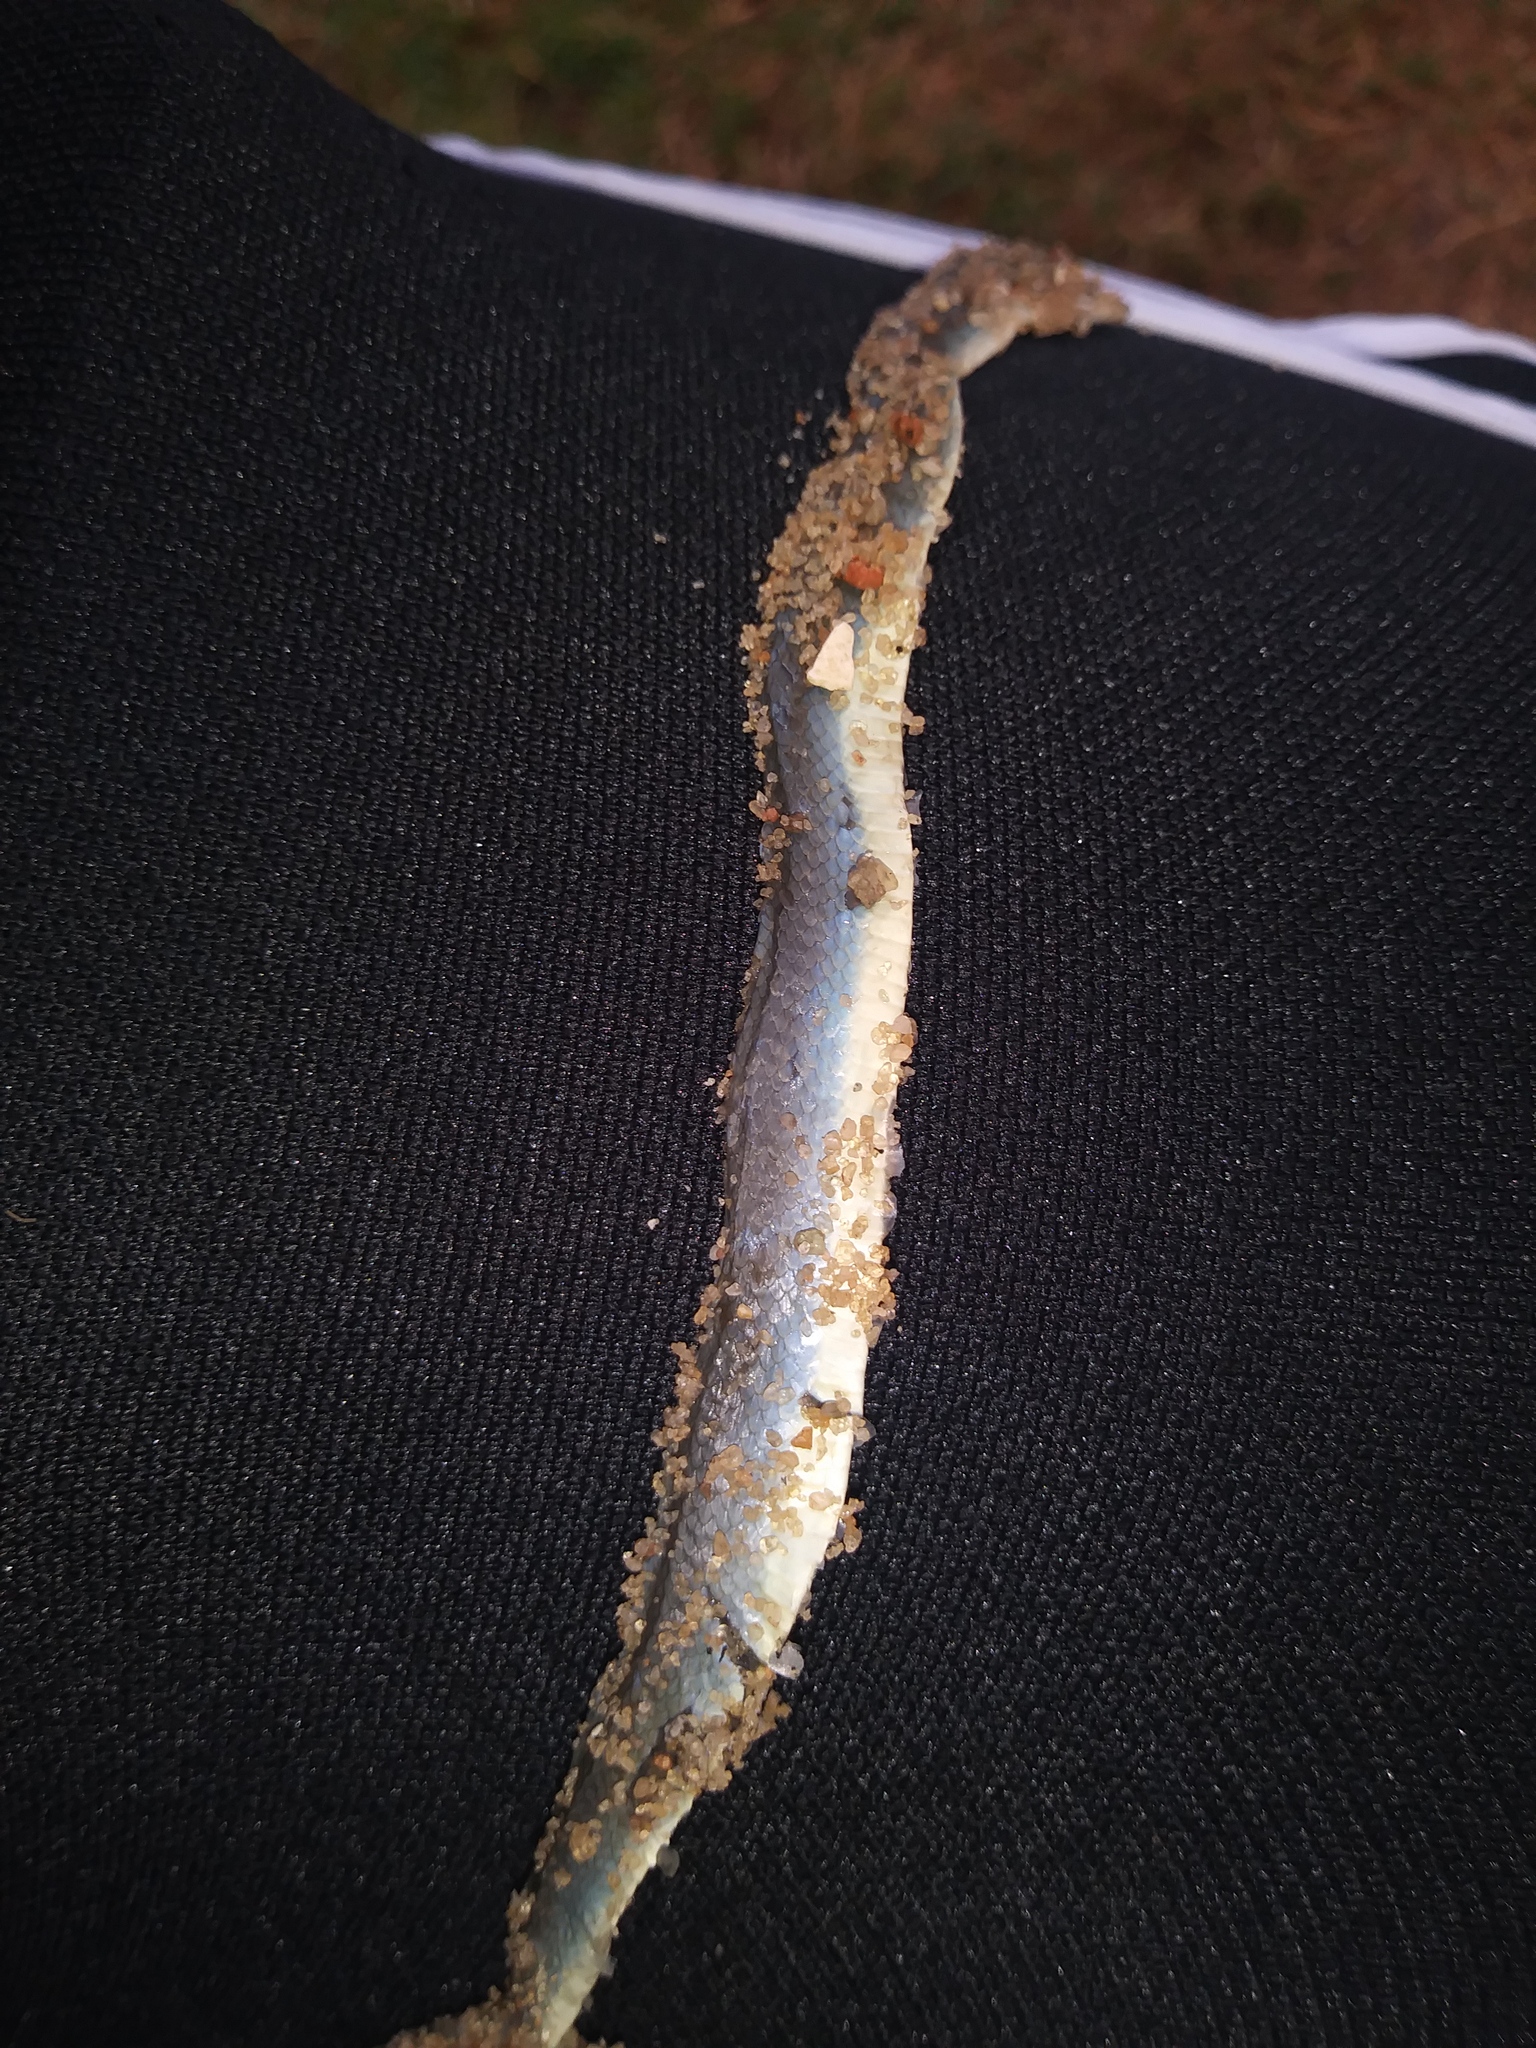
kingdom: Animalia
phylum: Chordata
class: Squamata
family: Colubridae
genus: Opheodrys
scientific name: Opheodrys aestivus
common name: Rough greensnake
